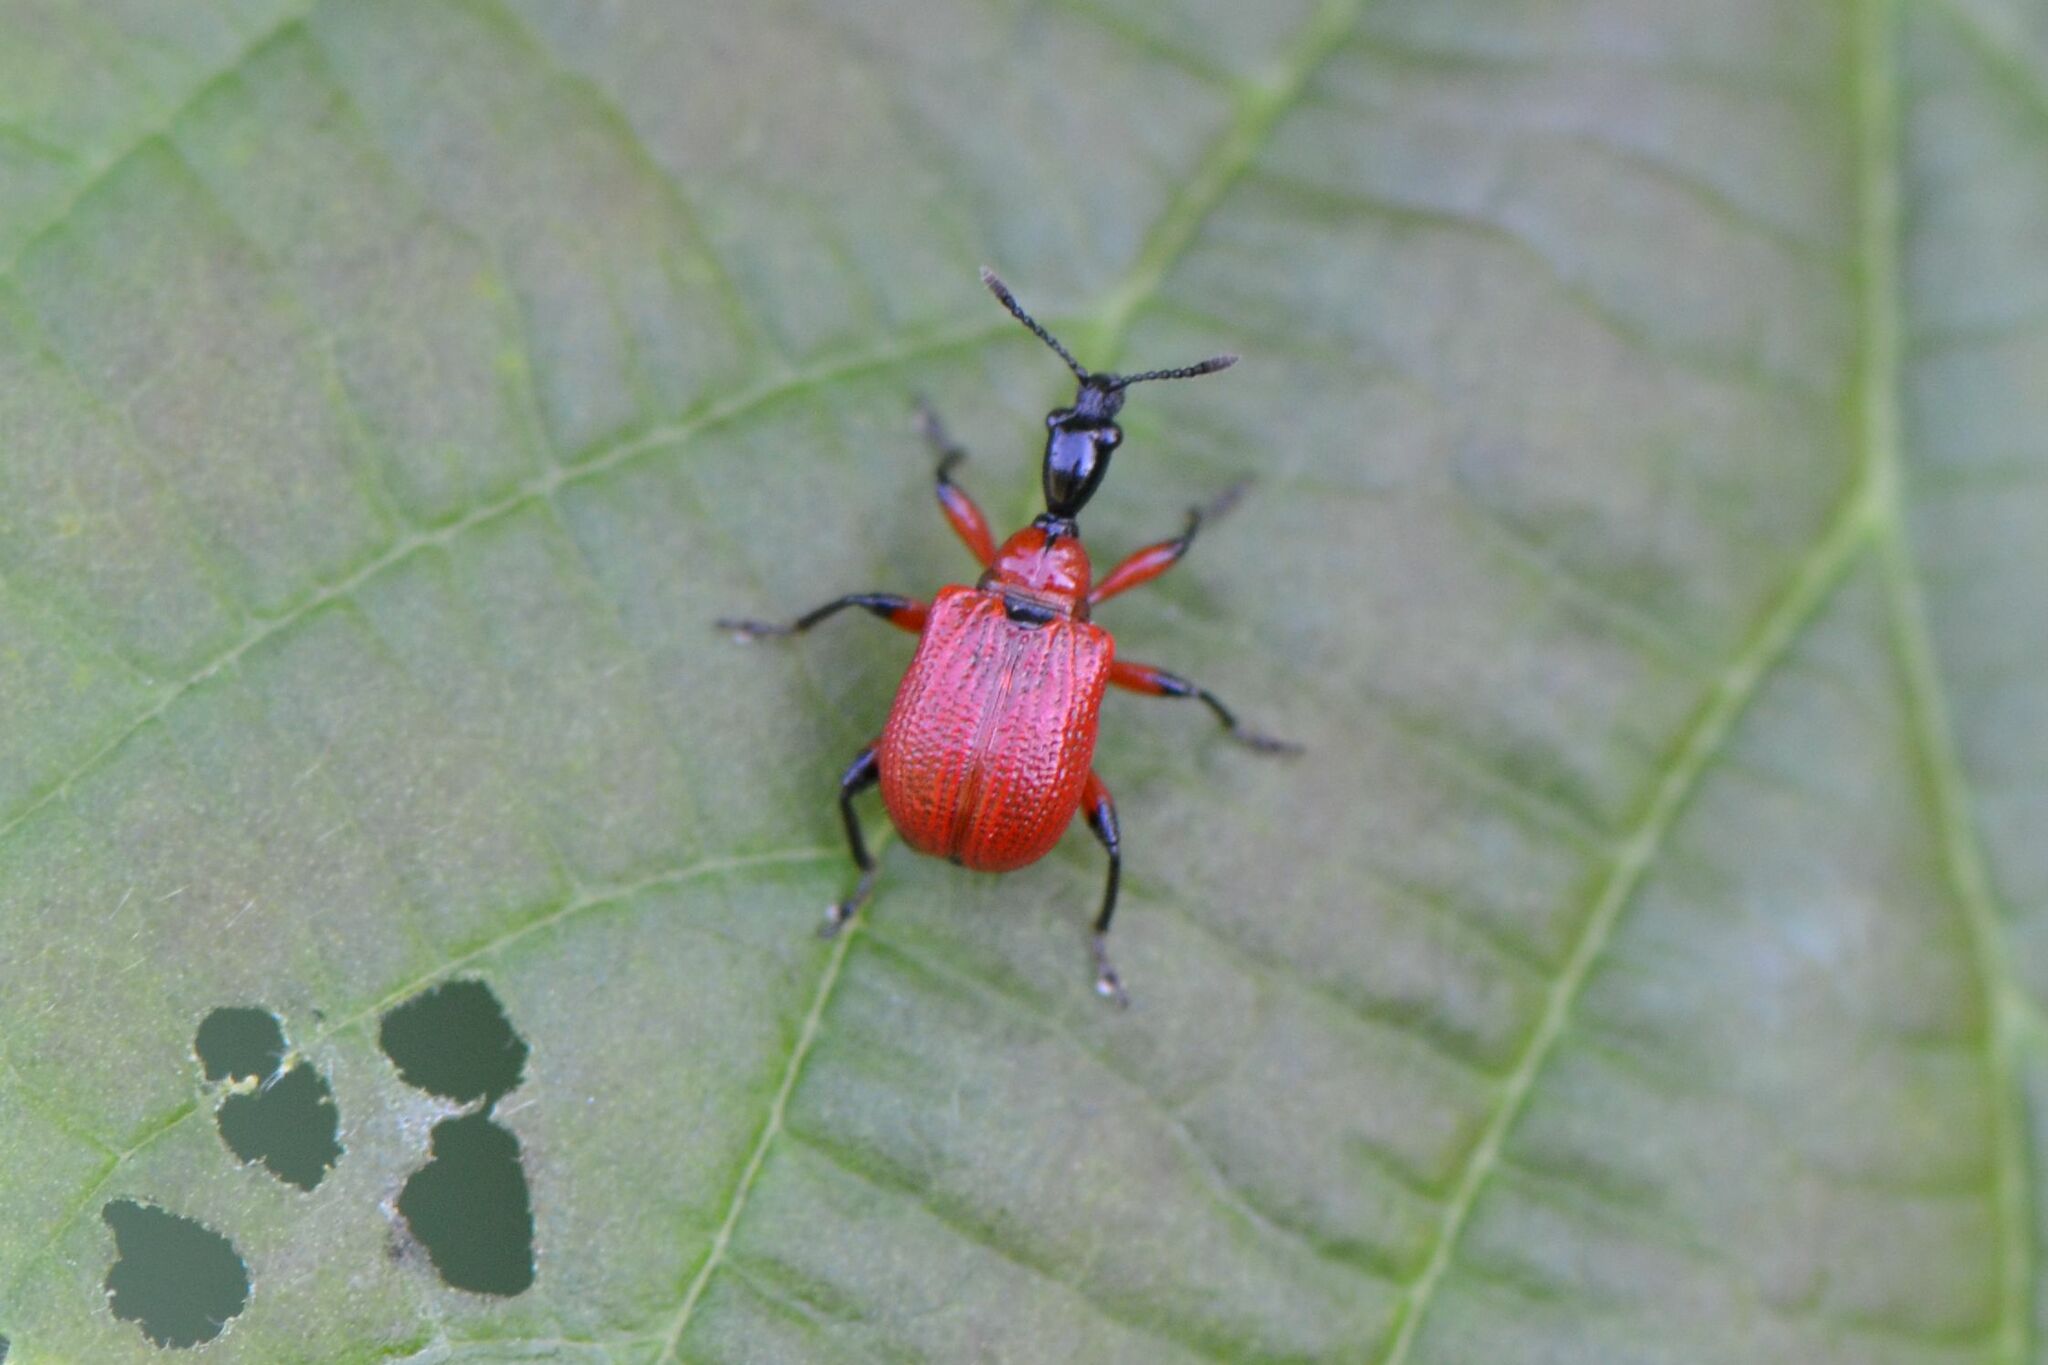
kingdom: Animalia
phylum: Arthropoda
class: Insecta
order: Coleoptera
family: Attelabidae
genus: Apoderus
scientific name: Apoderus coryli
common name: Hazel leaf roller
